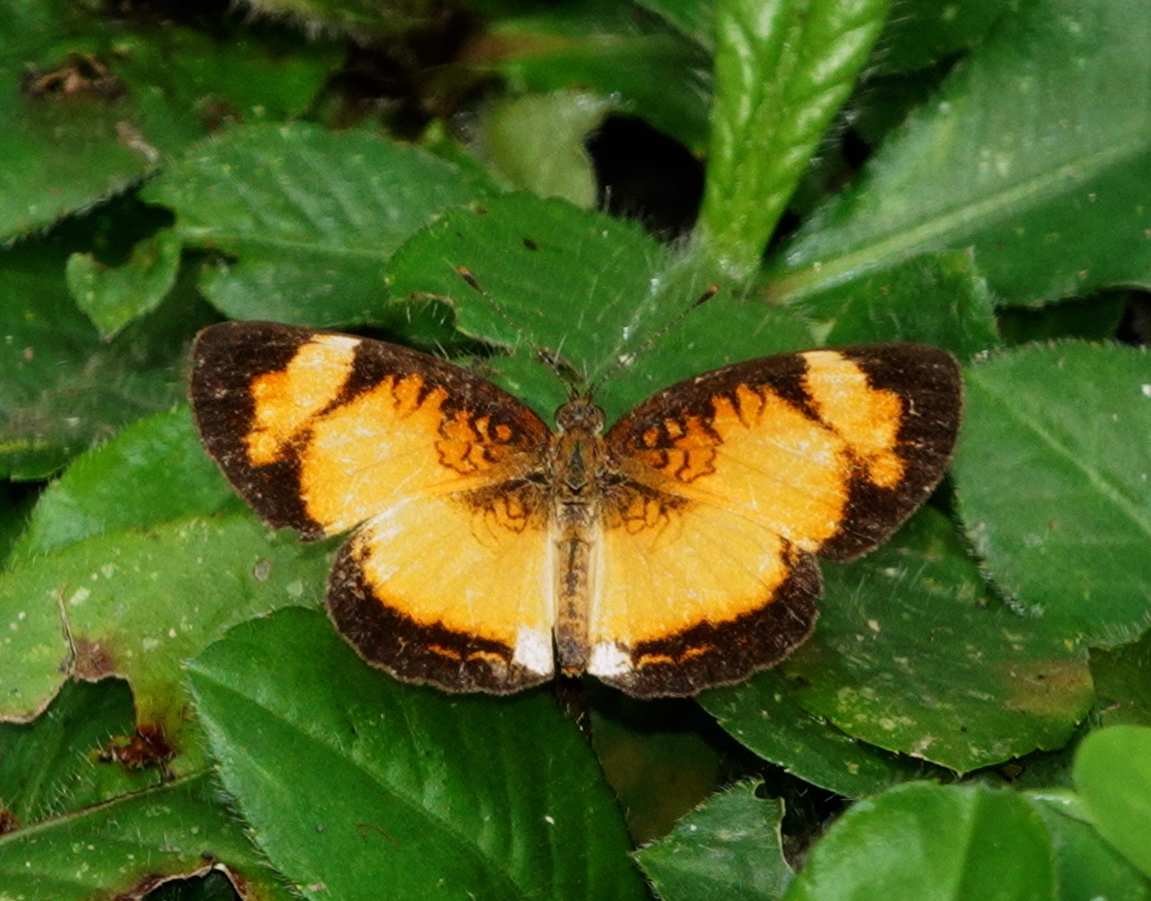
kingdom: Animalia
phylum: Arthropoda
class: Insecta
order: Lepidoptera
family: Nymphalidae
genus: Ortilia
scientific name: Ortilia gentina
